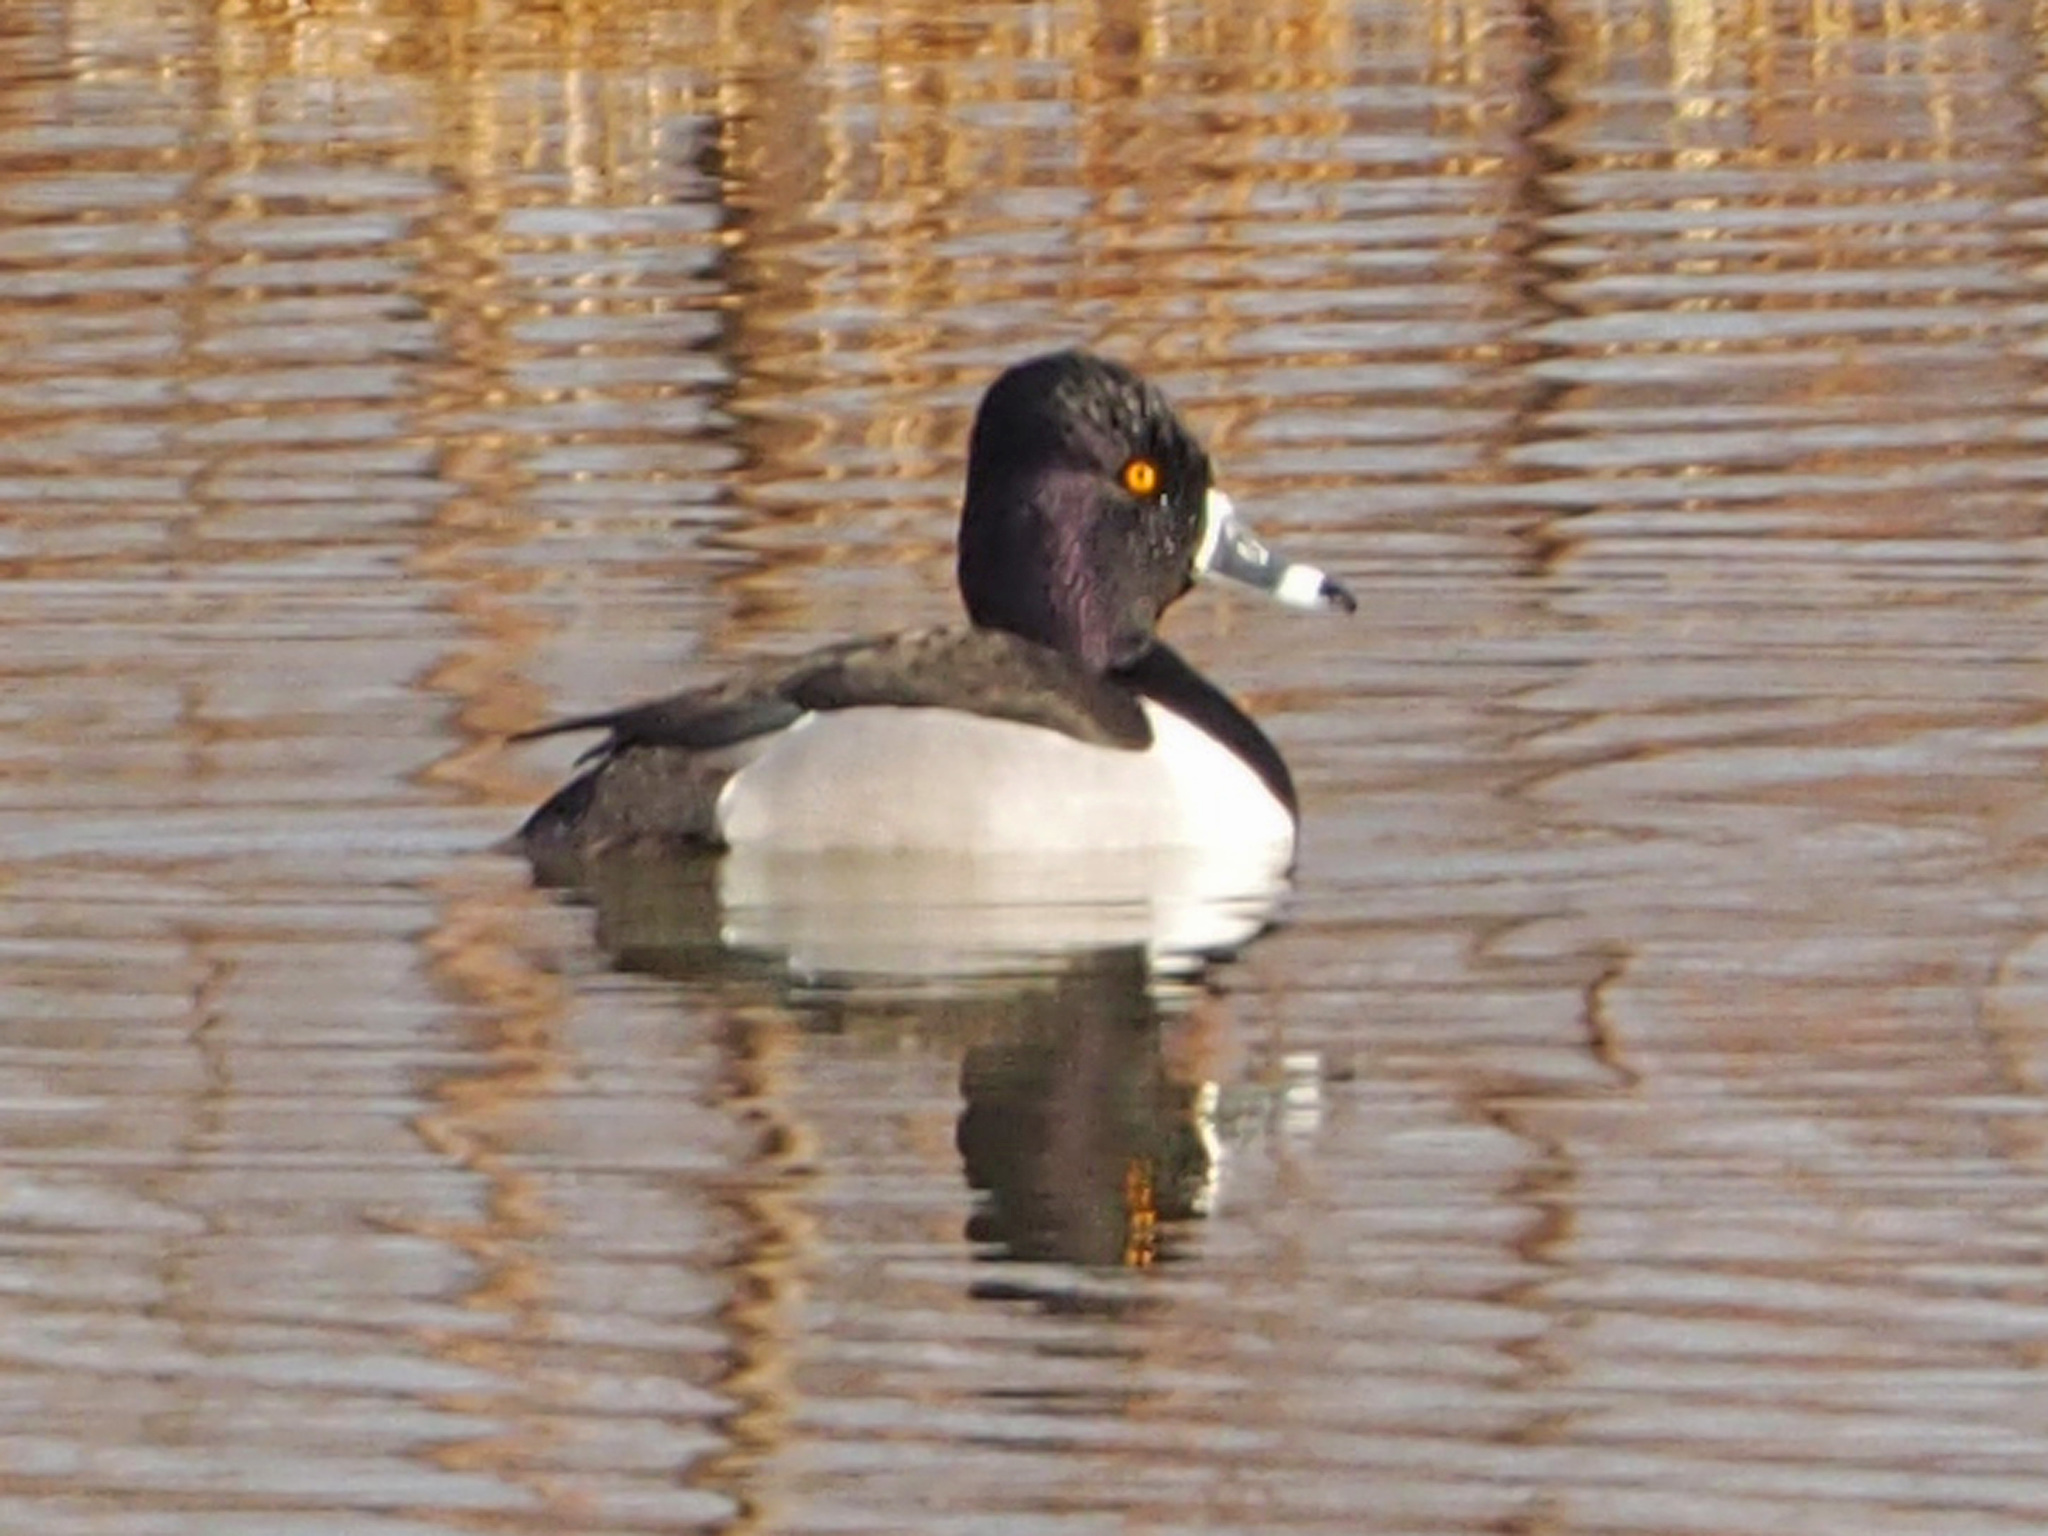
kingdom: Animalia
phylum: Chordata
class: Aves
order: Anseriformes
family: Anatidae
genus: Aythya
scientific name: Aythya collaris
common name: Ring-necked duck
